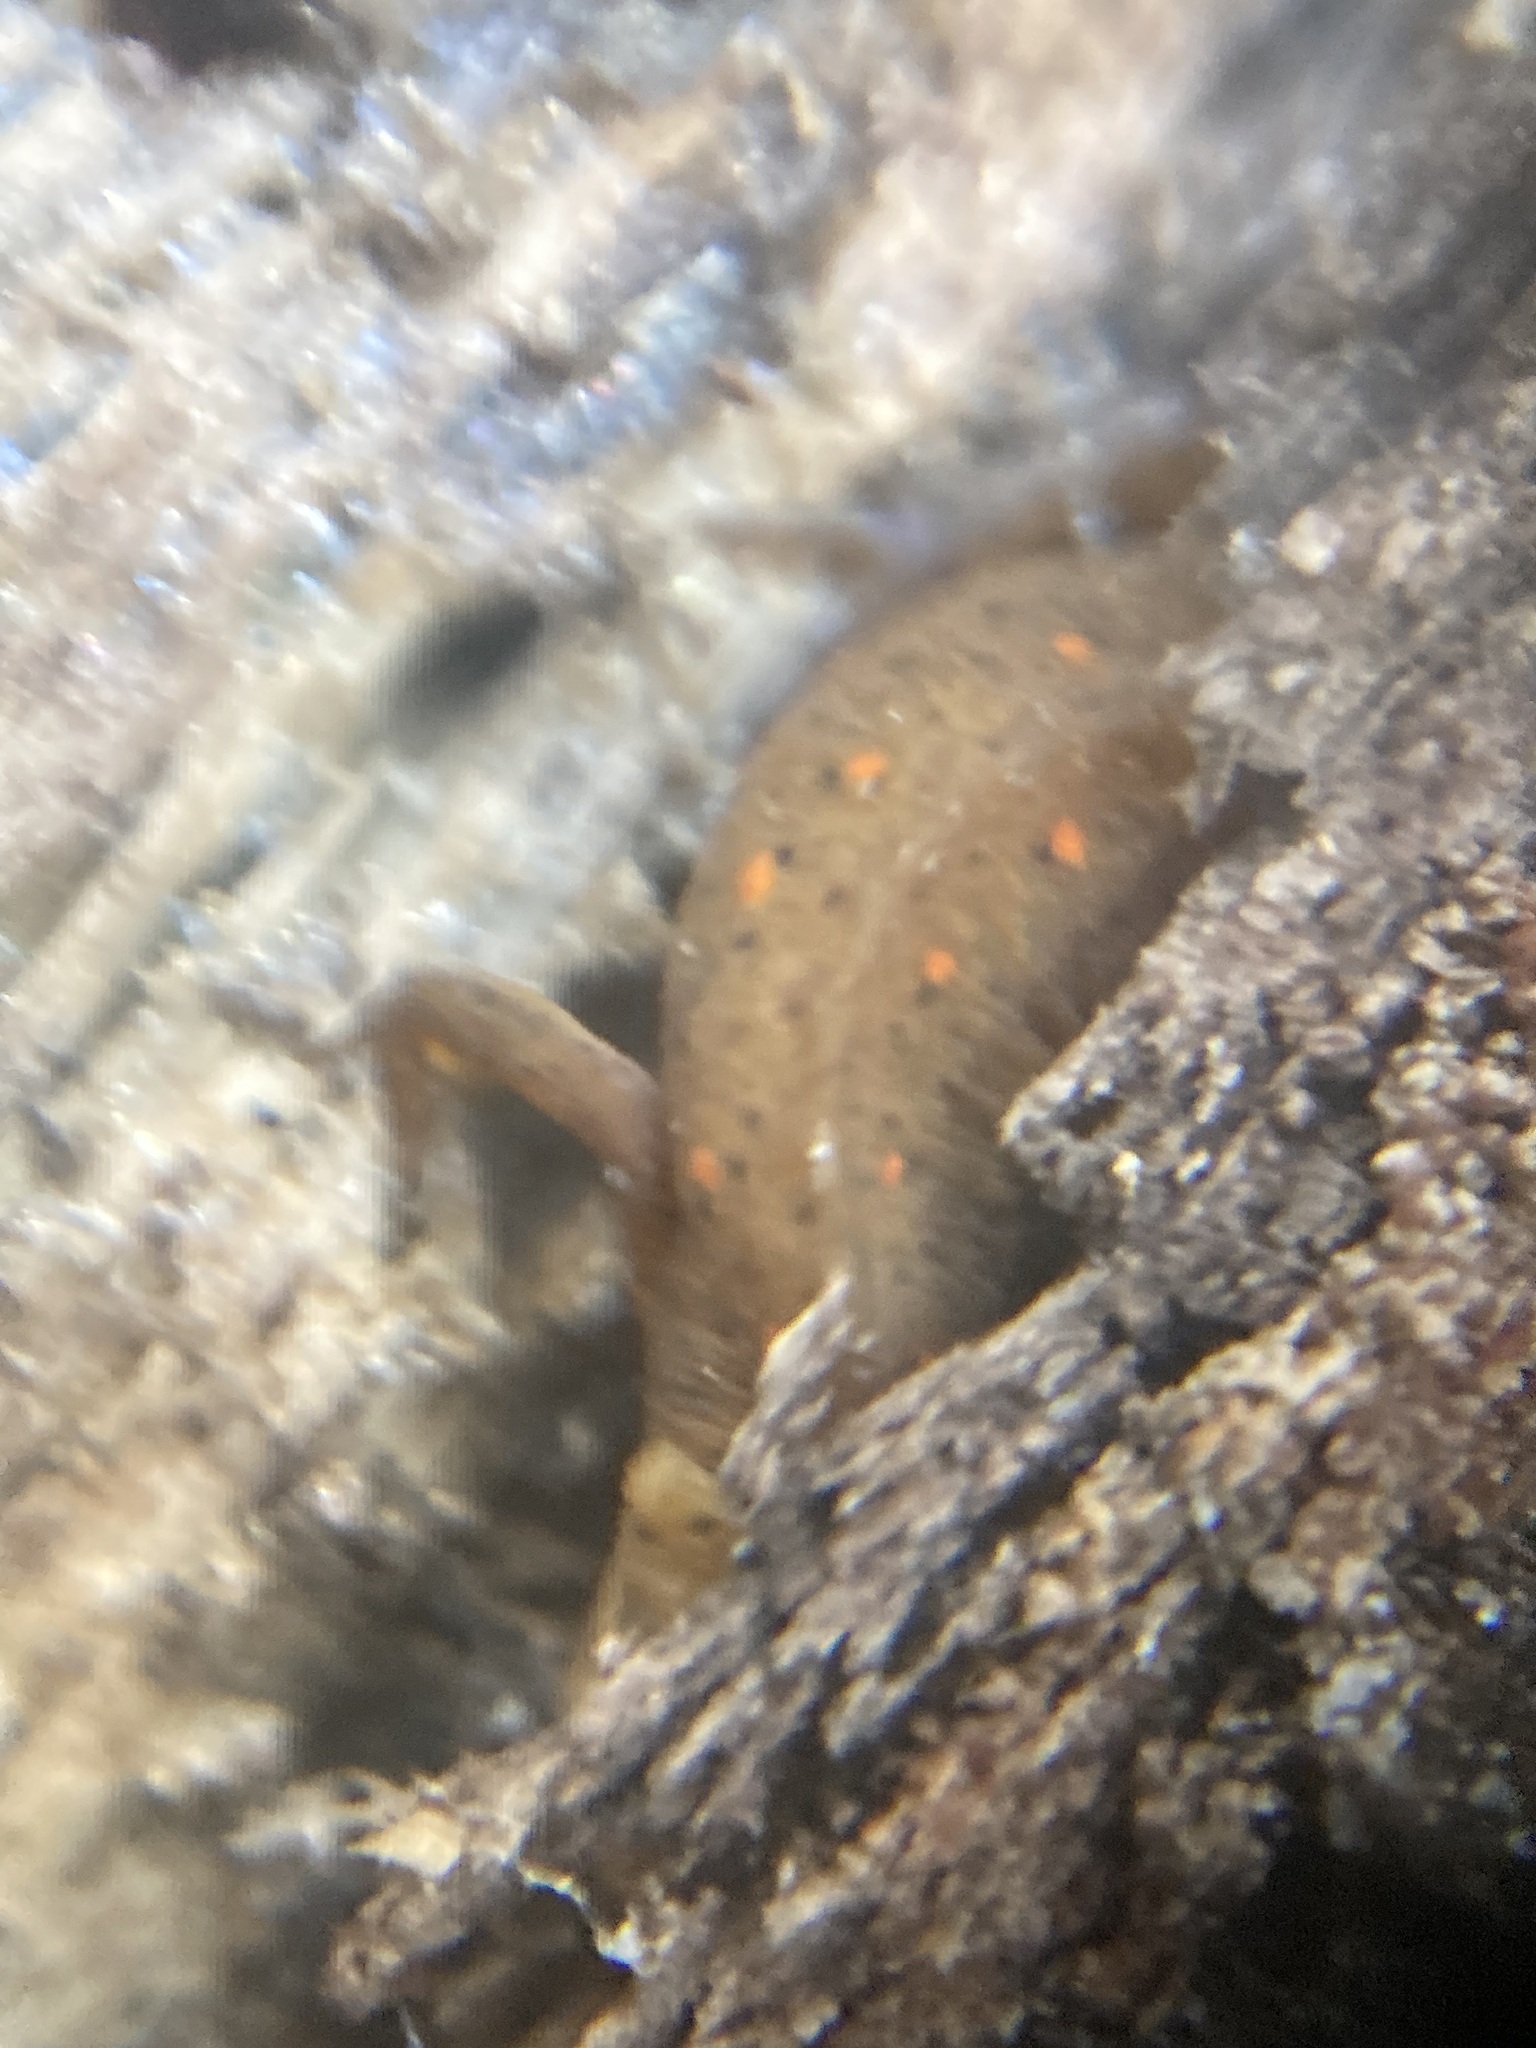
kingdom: Animalia
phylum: Chordata
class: Amphibia
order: Caudata
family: Salamandridae
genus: Notophthalmus
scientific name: Notophthalmus viridescens
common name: Eastern newt
